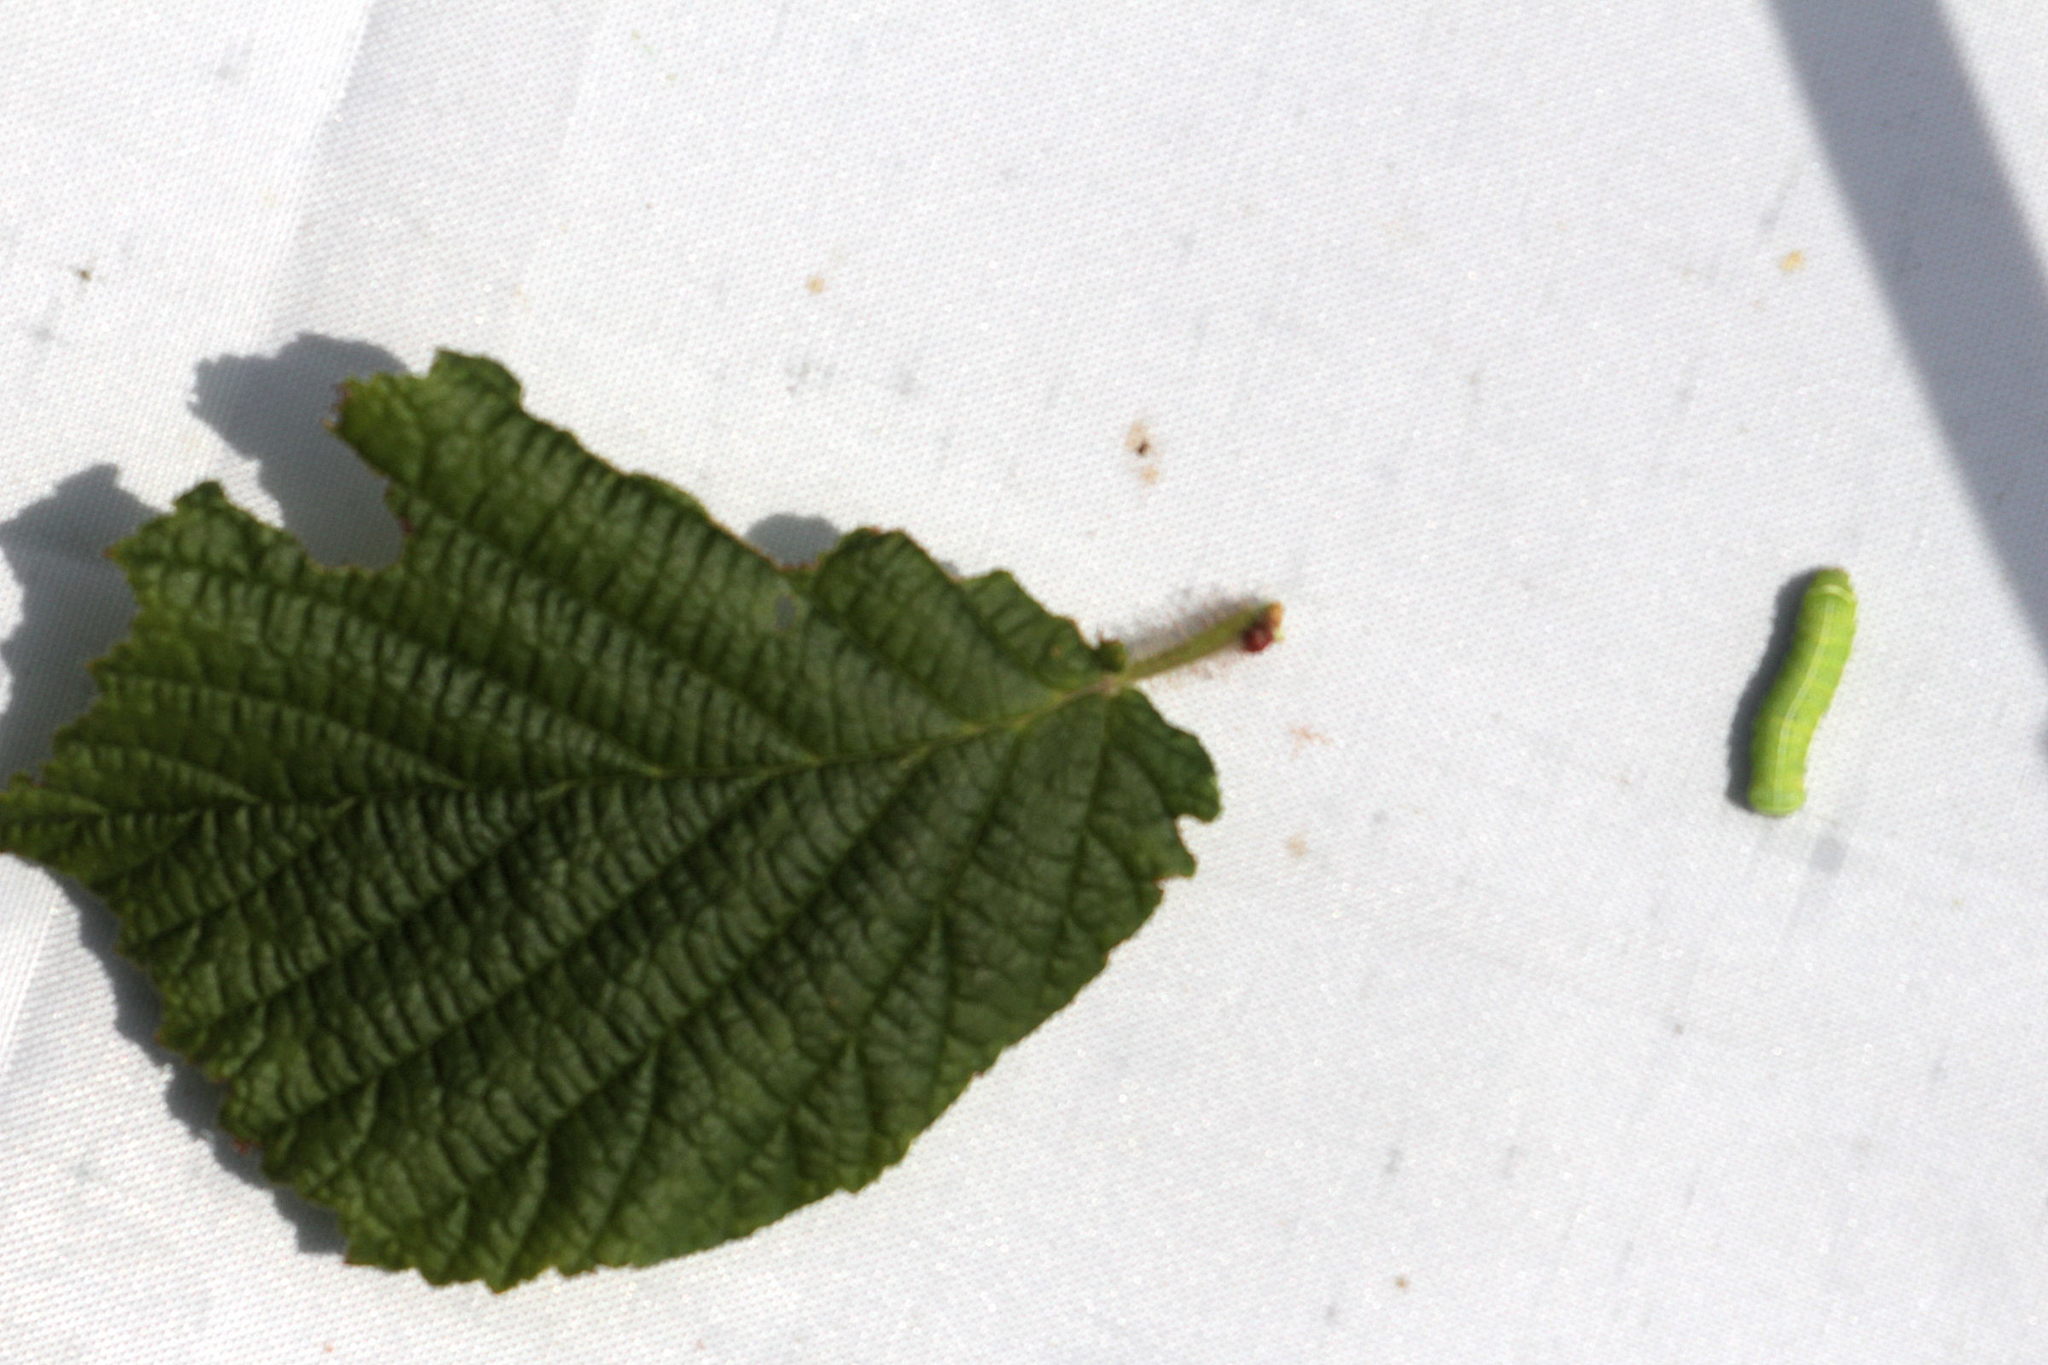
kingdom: Animalia
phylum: Arthropoda
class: Insecta
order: Lepidoptera
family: Noctuidae
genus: Orthosia
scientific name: Orthosia cerasi
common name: Common quaker
